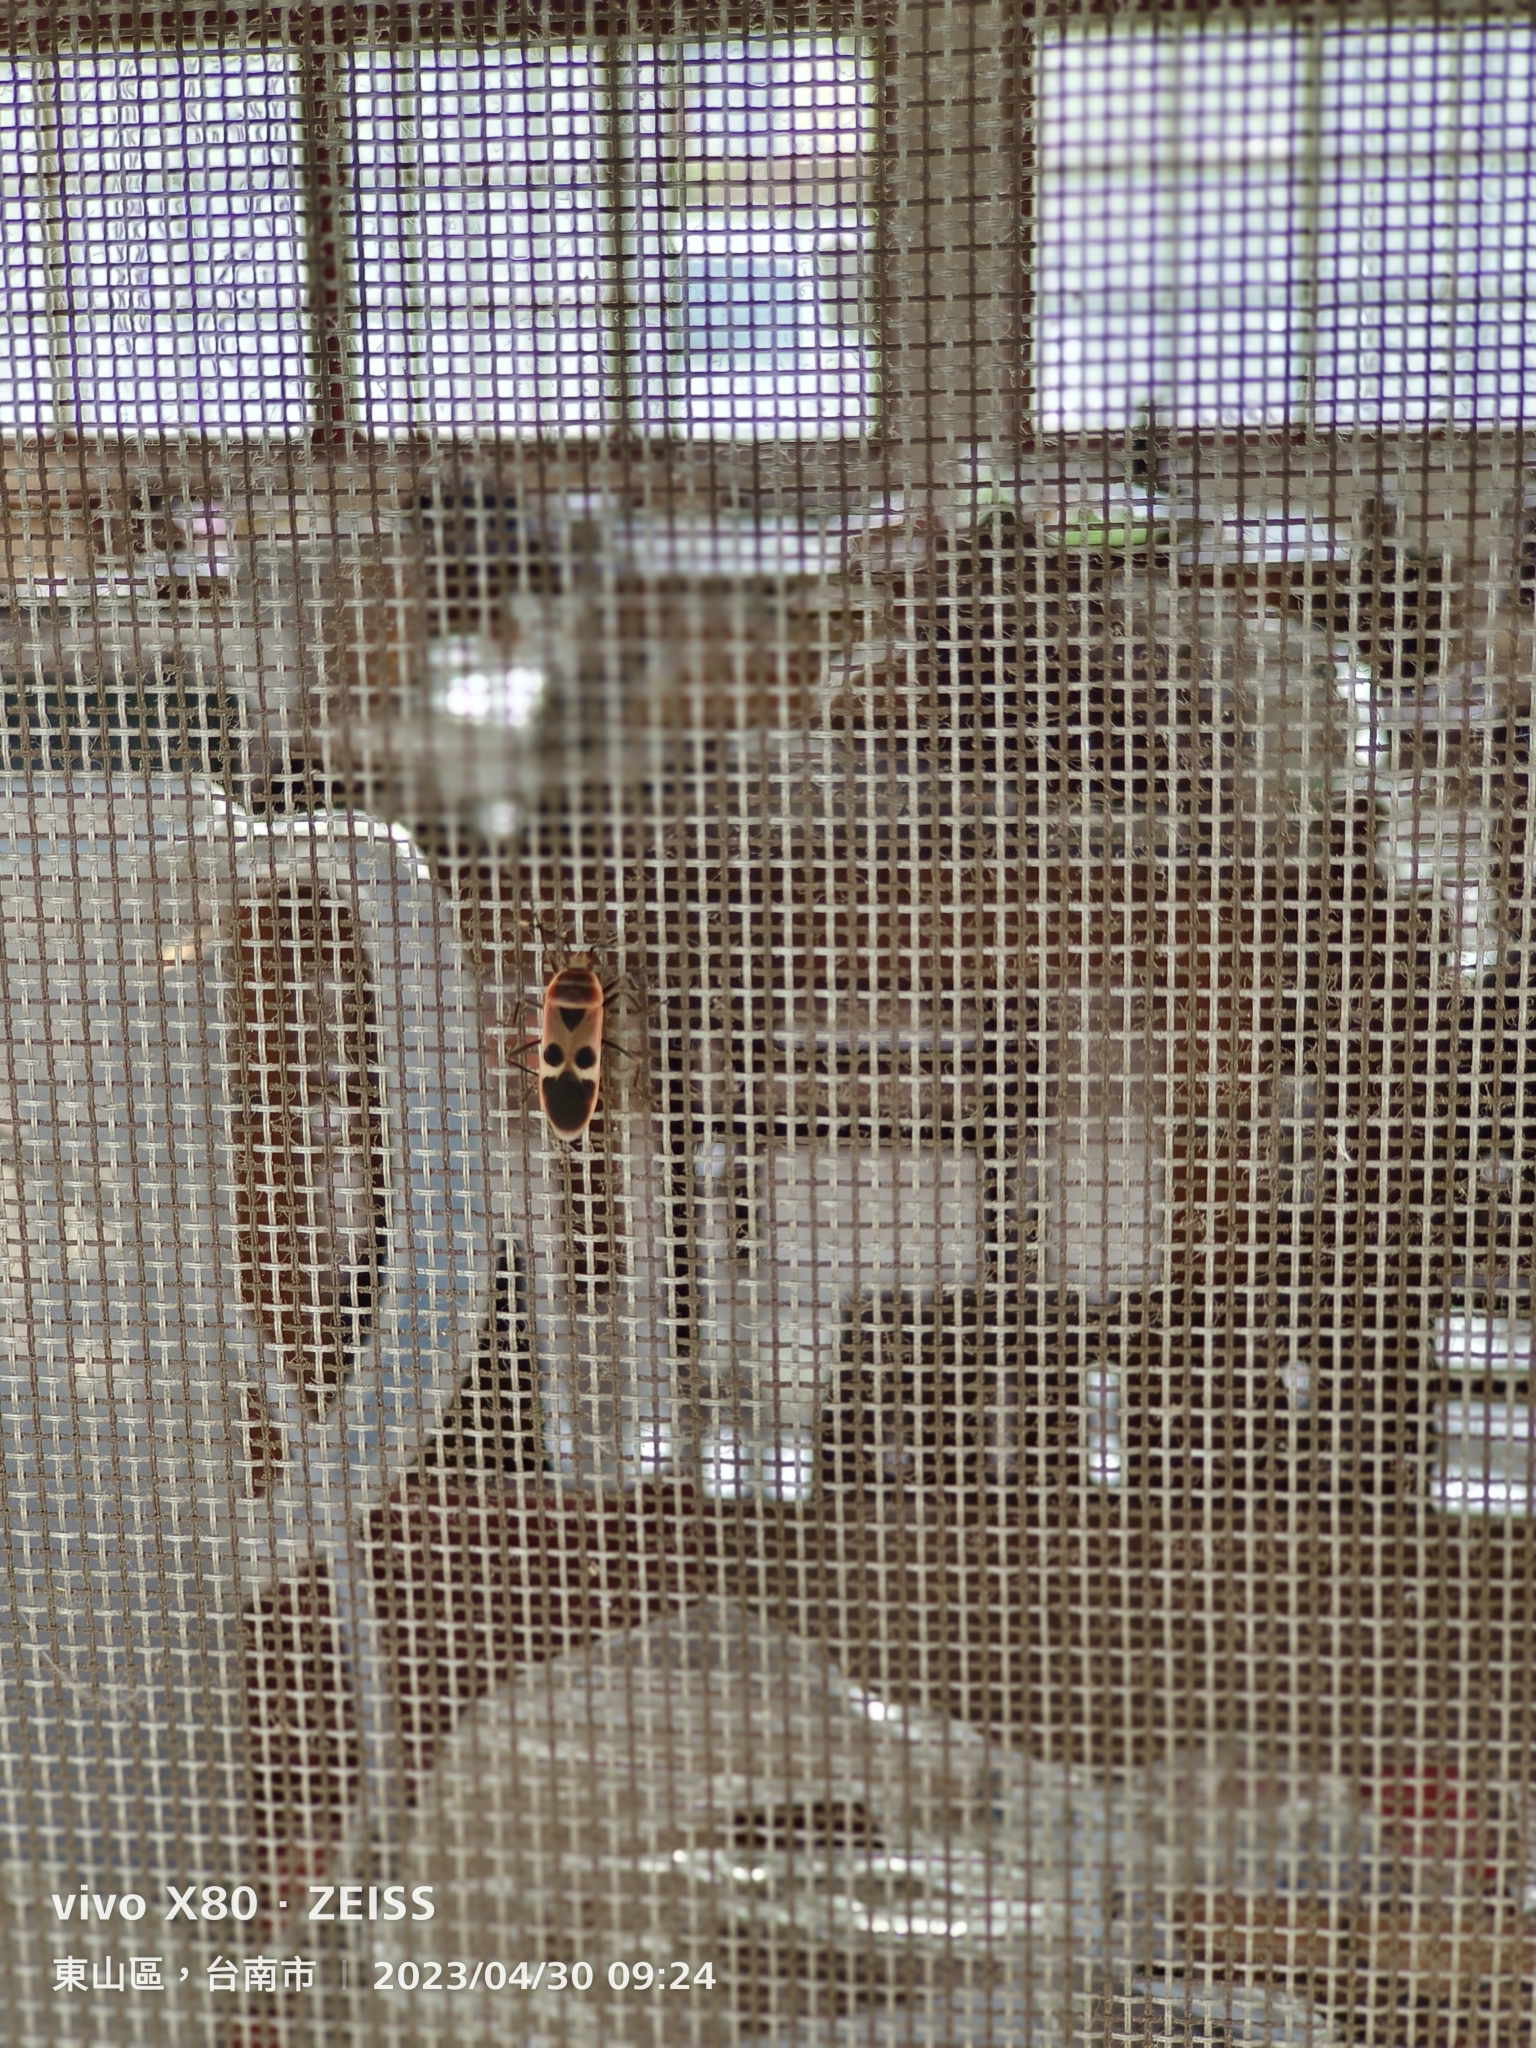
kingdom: Animalia
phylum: Arthropoda
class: Insecta
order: Hemiptera
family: Largidae
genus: Physopelta
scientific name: Physopelta gutta
